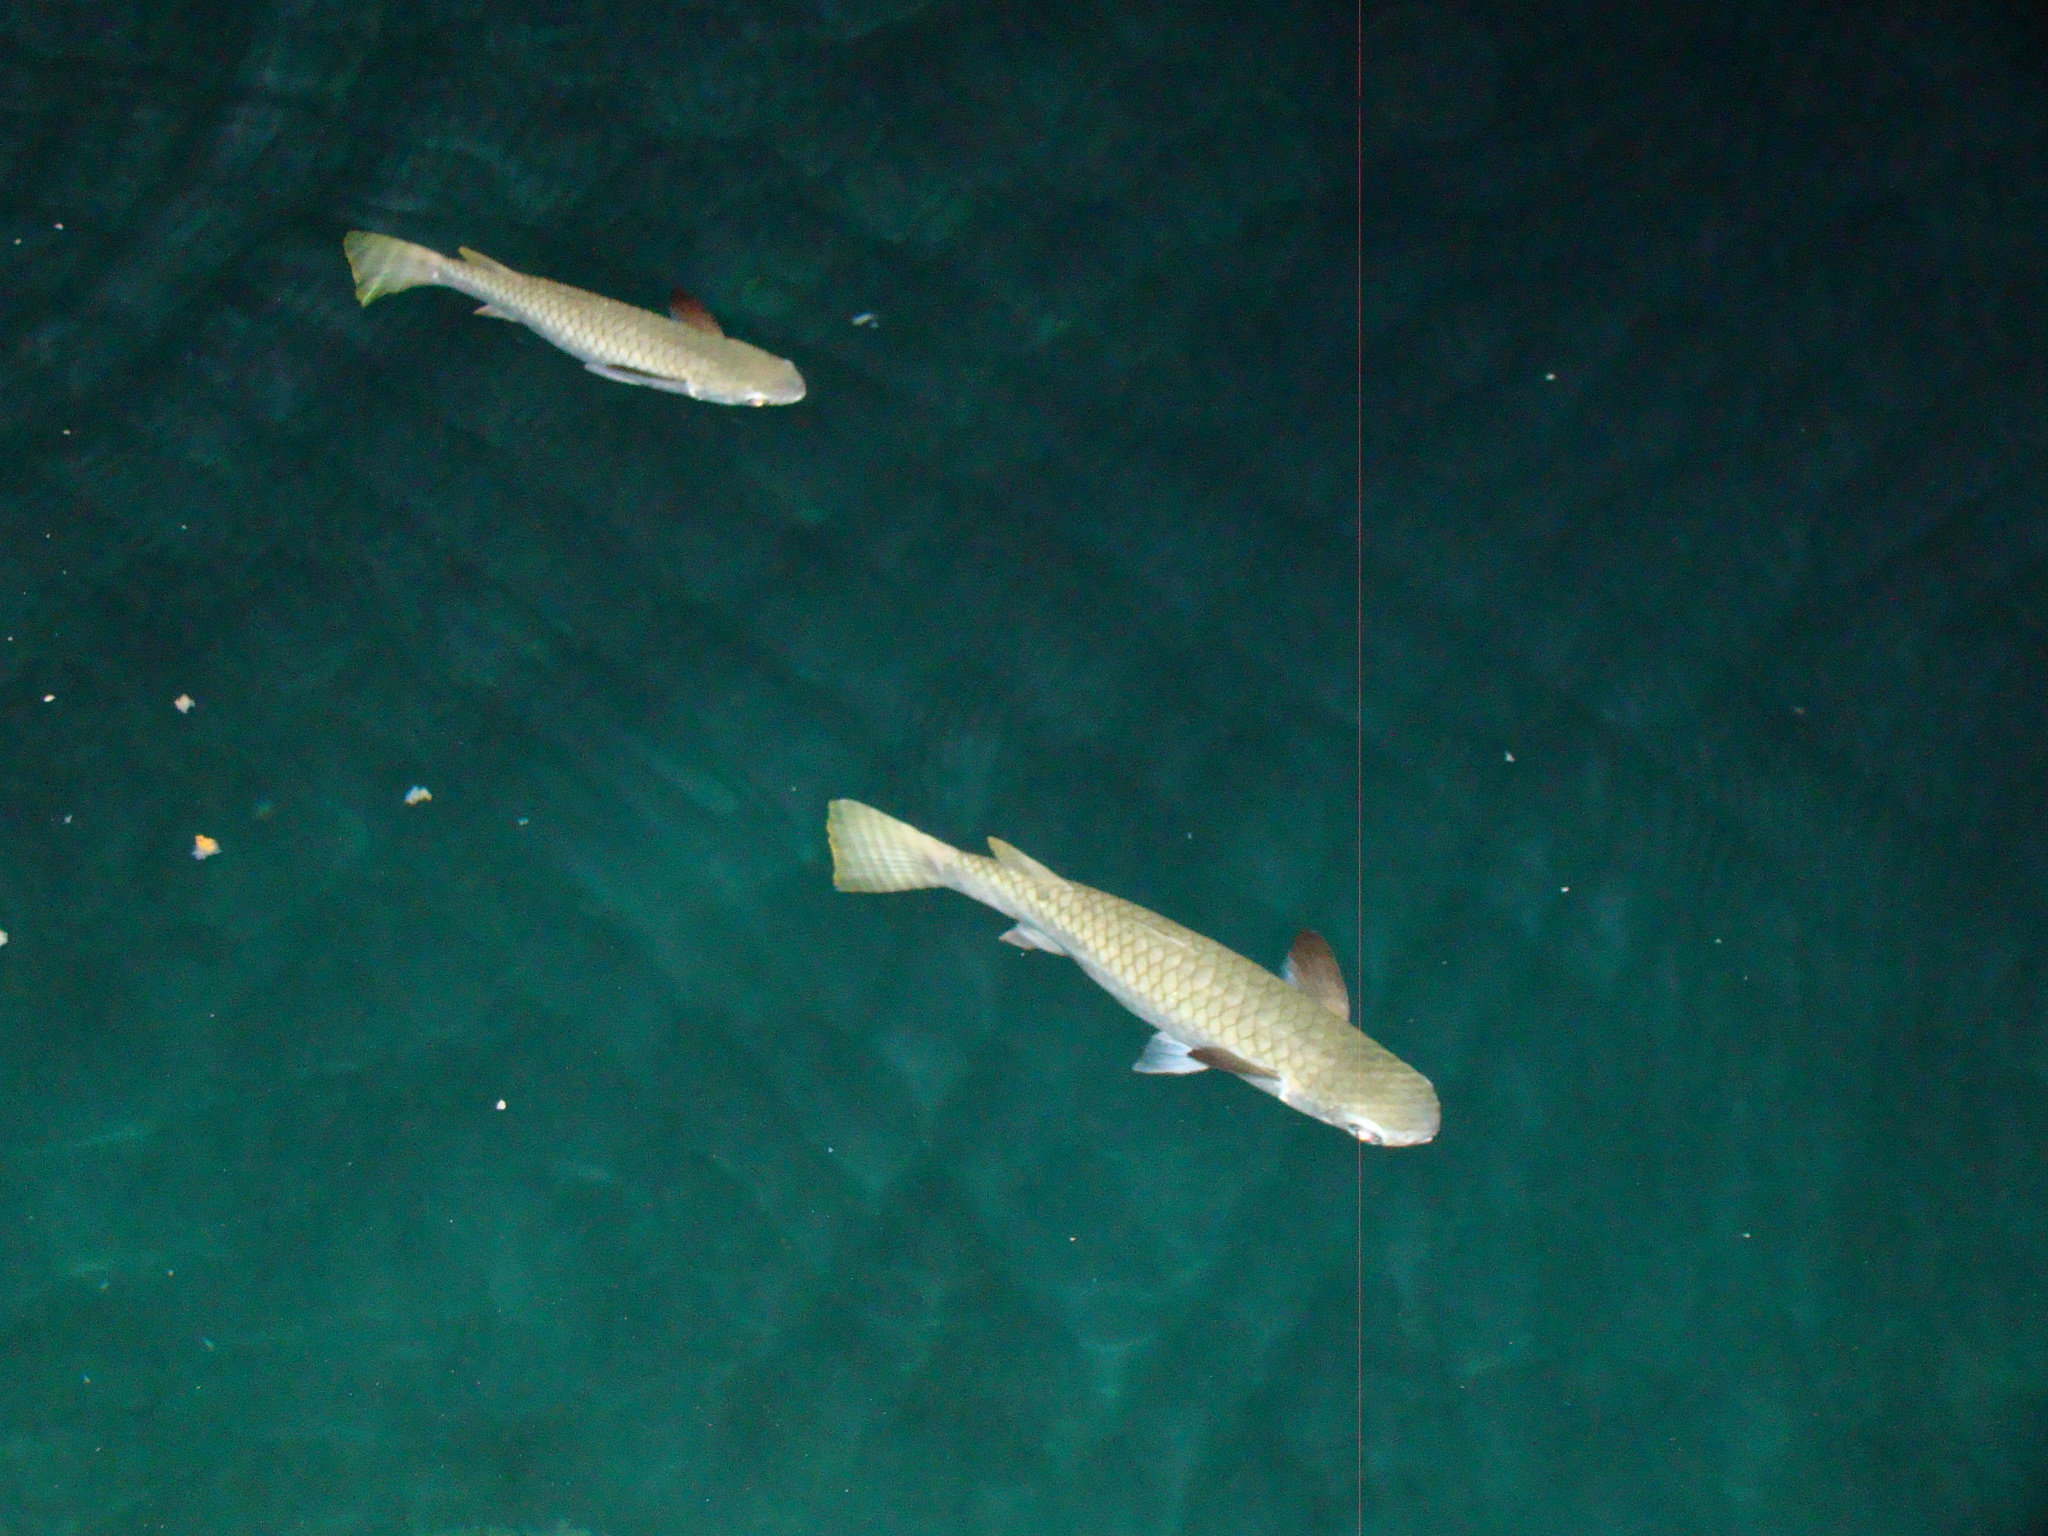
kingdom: Animalia
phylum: Chordata
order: Mugiliformes
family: Mugilidae
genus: Ellochelon
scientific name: Ellochelon vaigiensis
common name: Squaretail mullet
